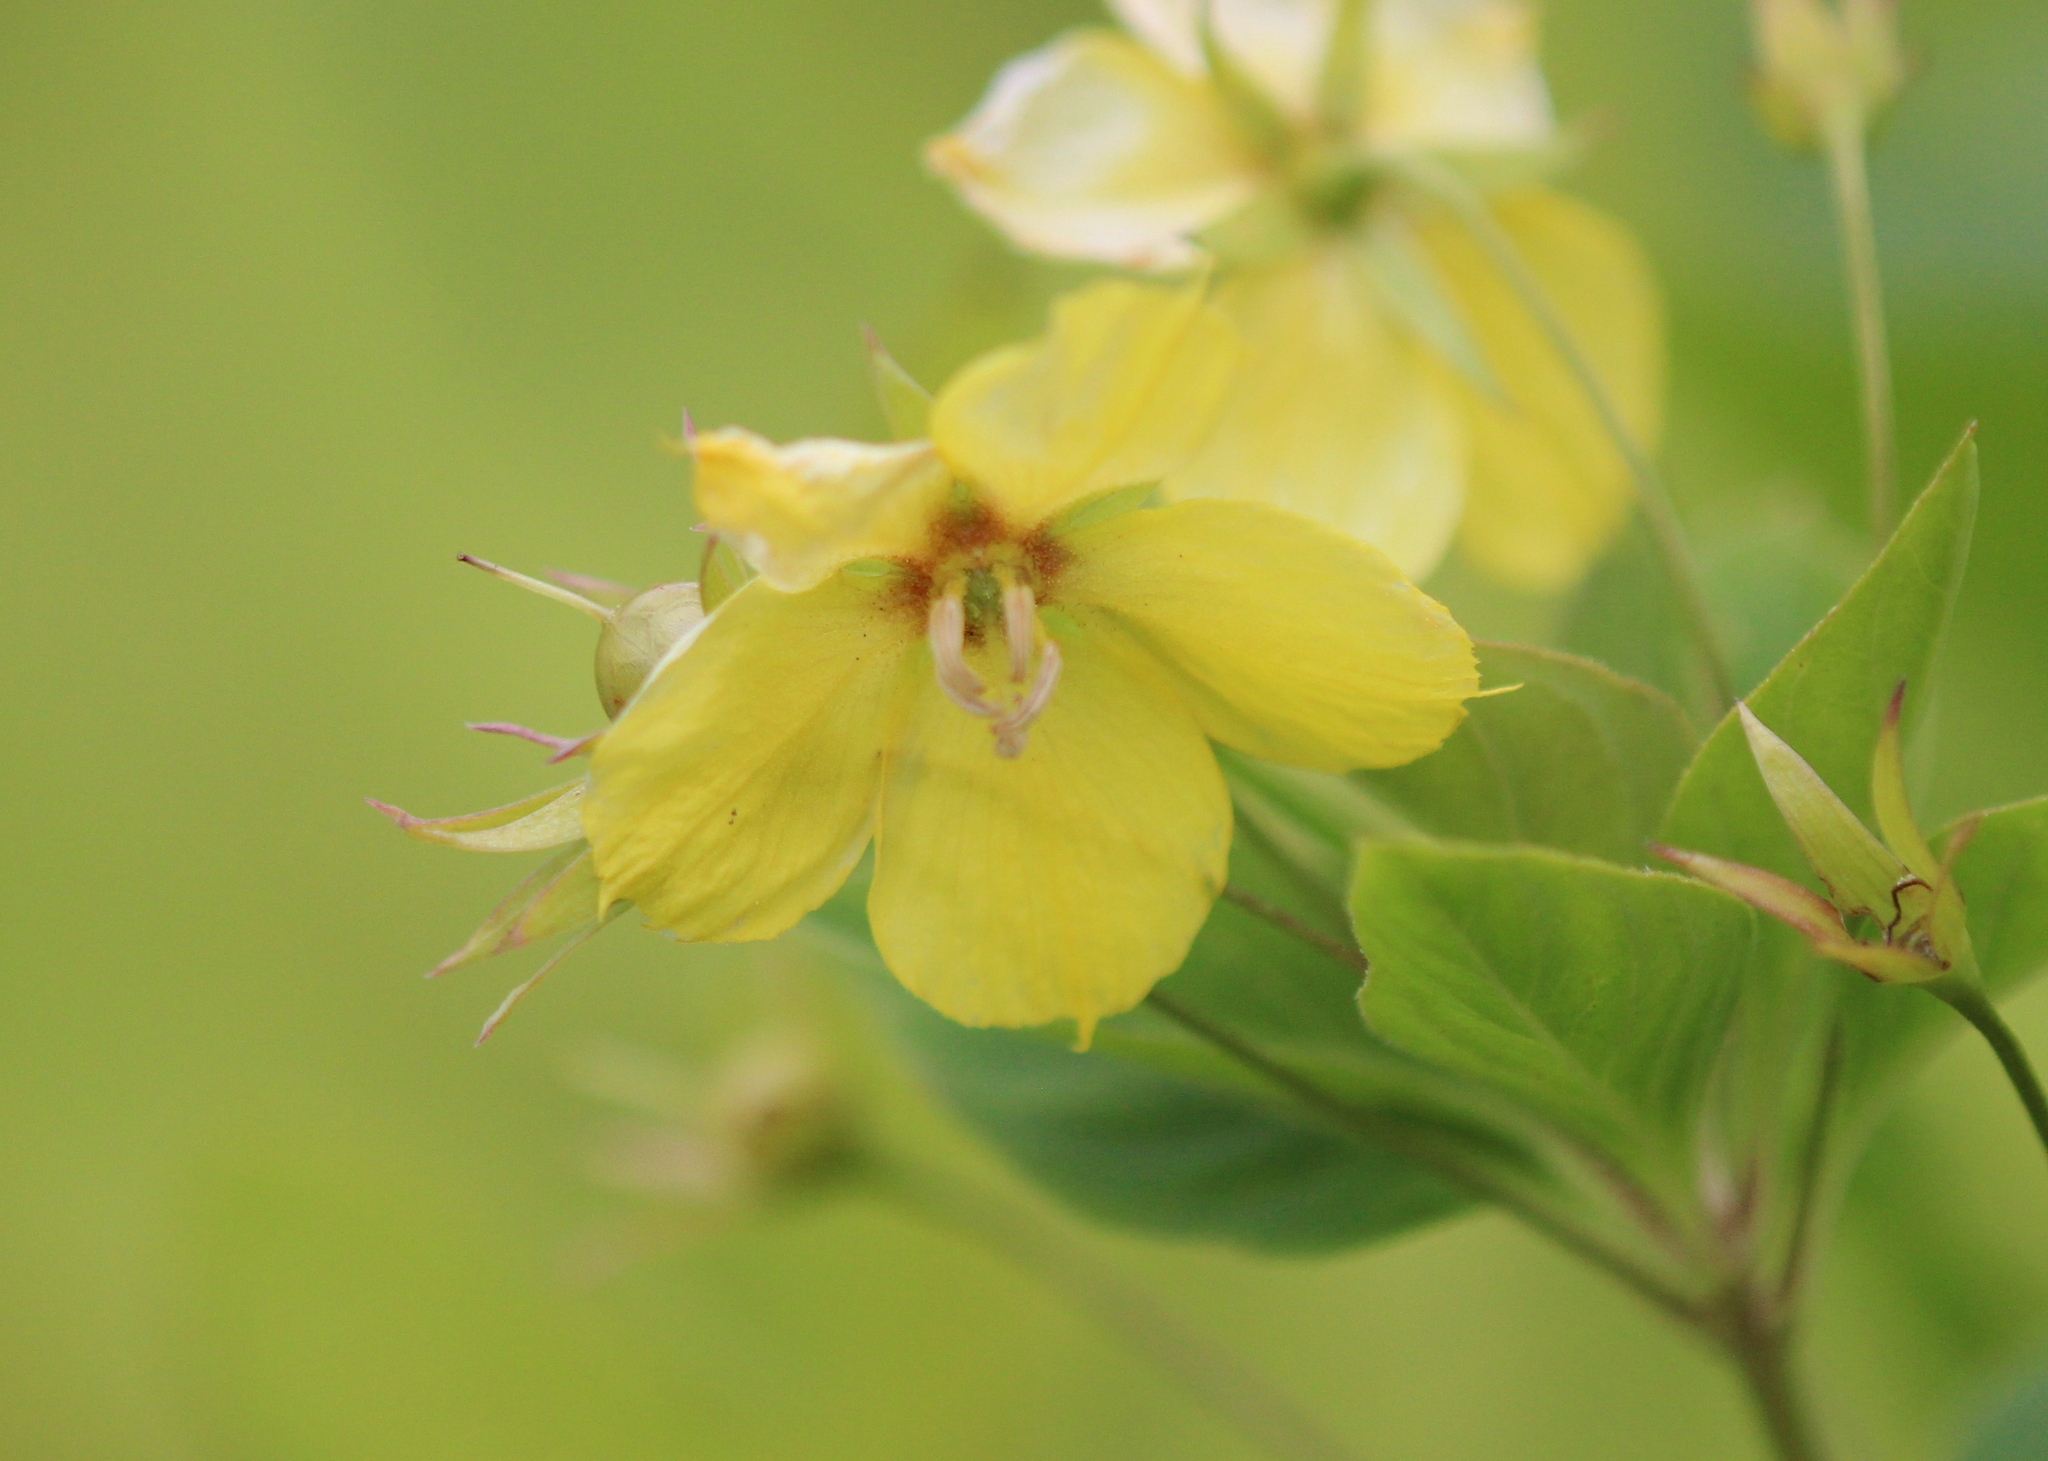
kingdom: Plantae
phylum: Tracheophyta
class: Magnoliopsida
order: Ericales
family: Primulaceae
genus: Lysimachia
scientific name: Lysimachia ciliata
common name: Fringed loosestrife
